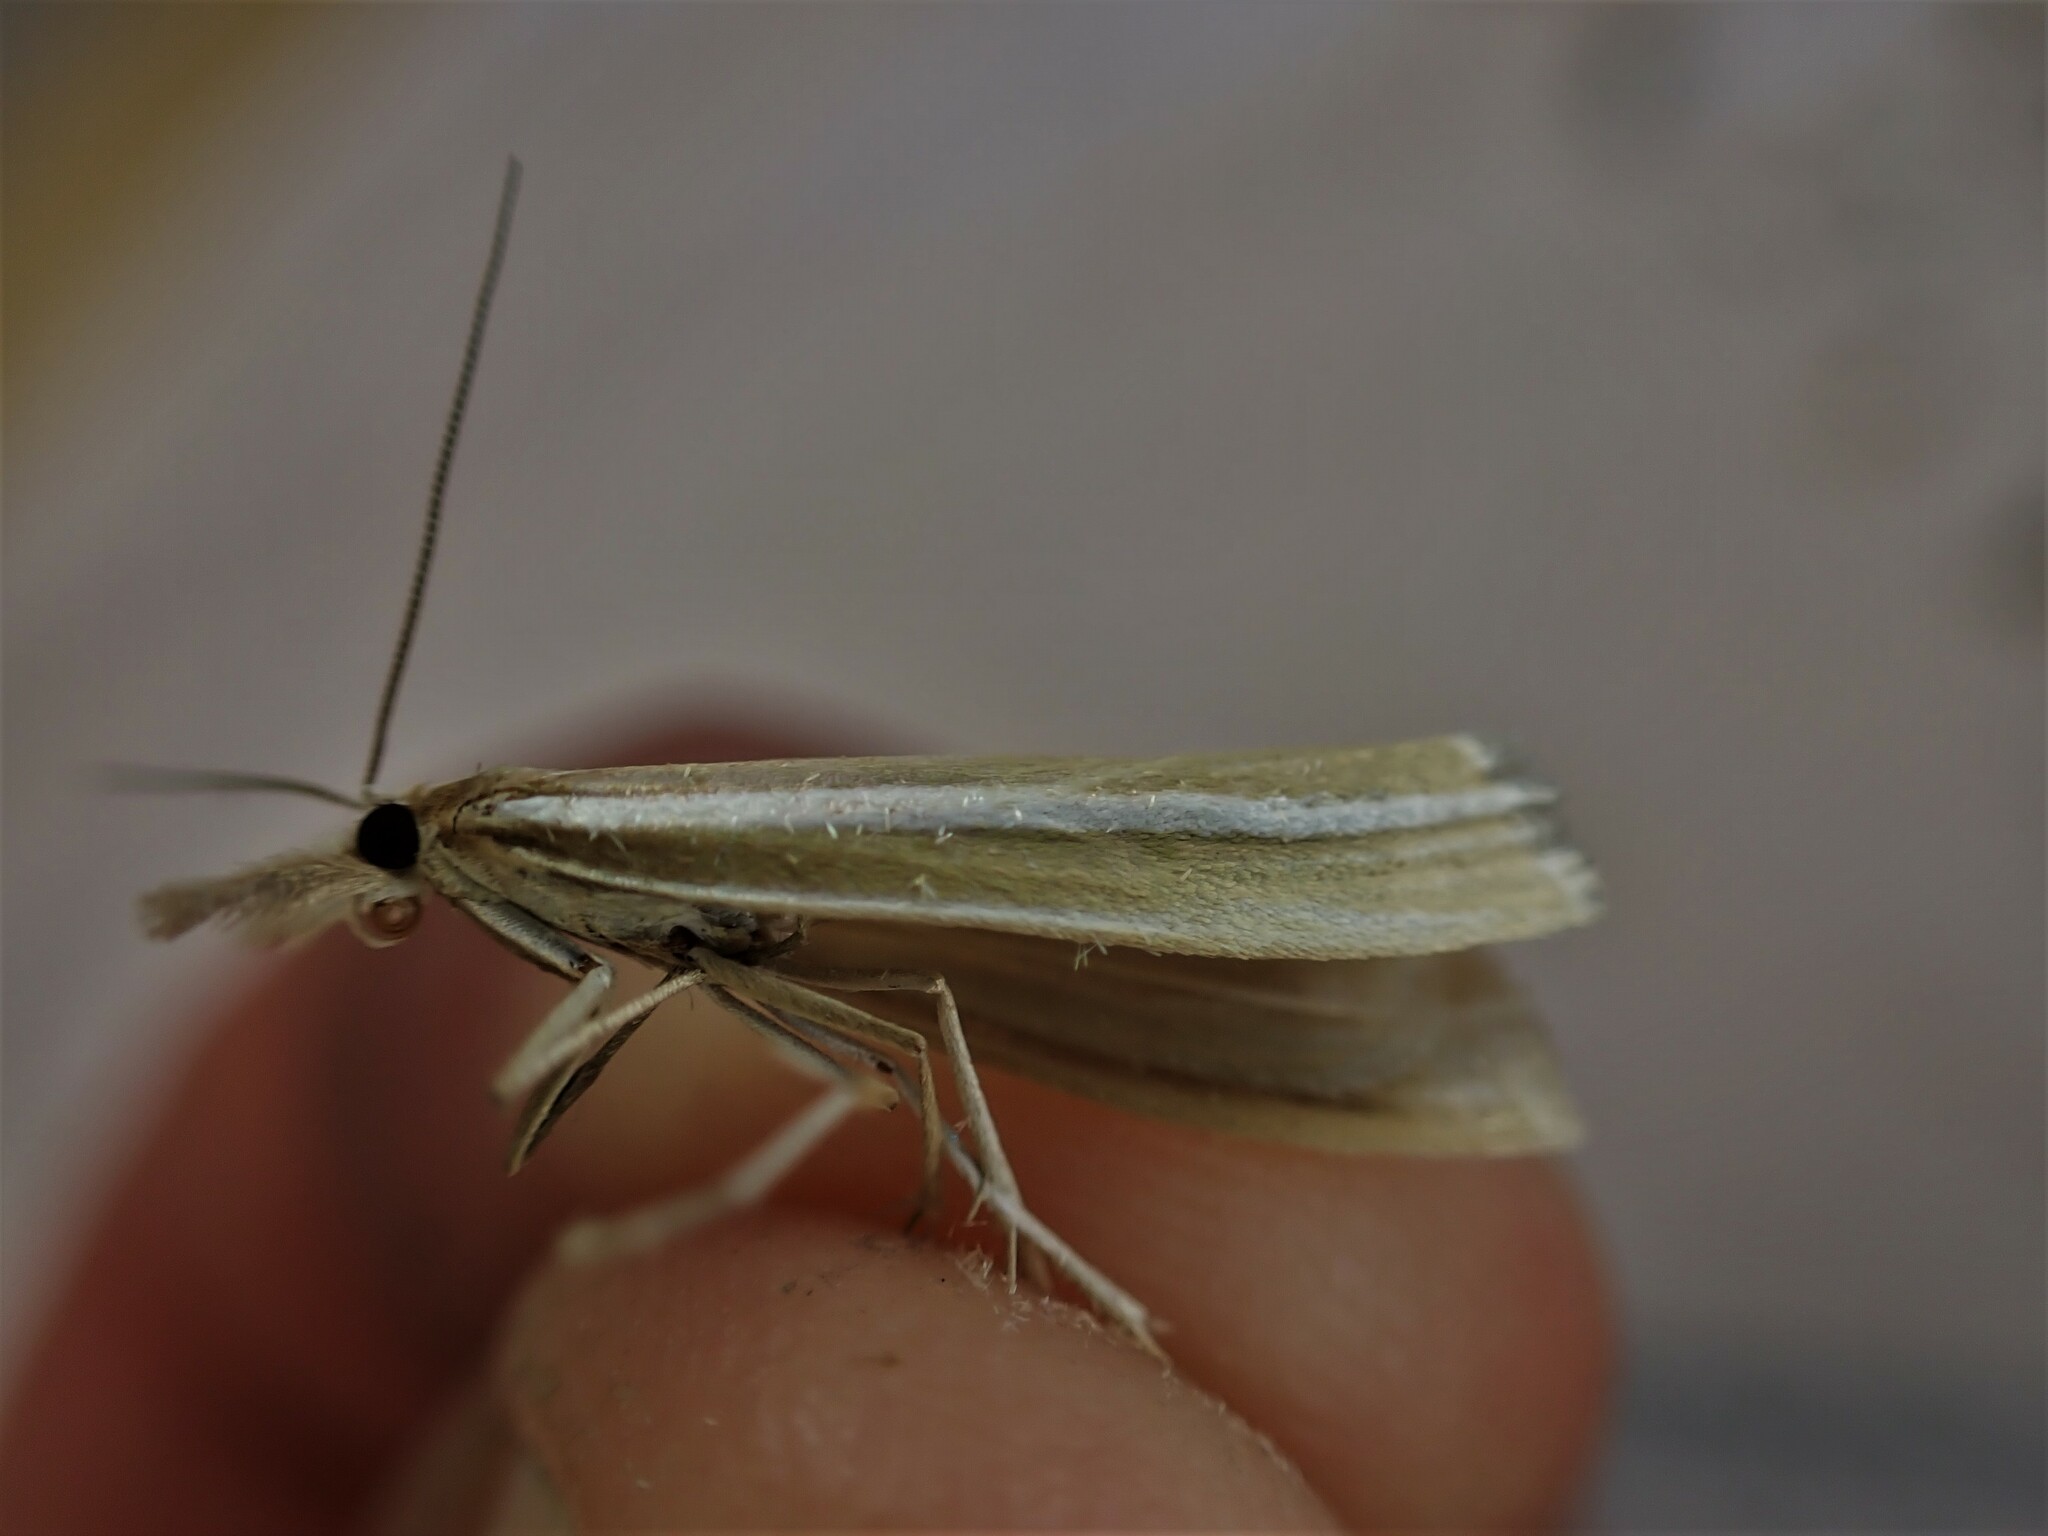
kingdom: Animalia
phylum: Arthropoda
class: Insecta
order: Lepidoptera
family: Crambidae
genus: Orocrambus
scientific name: Orocrambus lewisi
